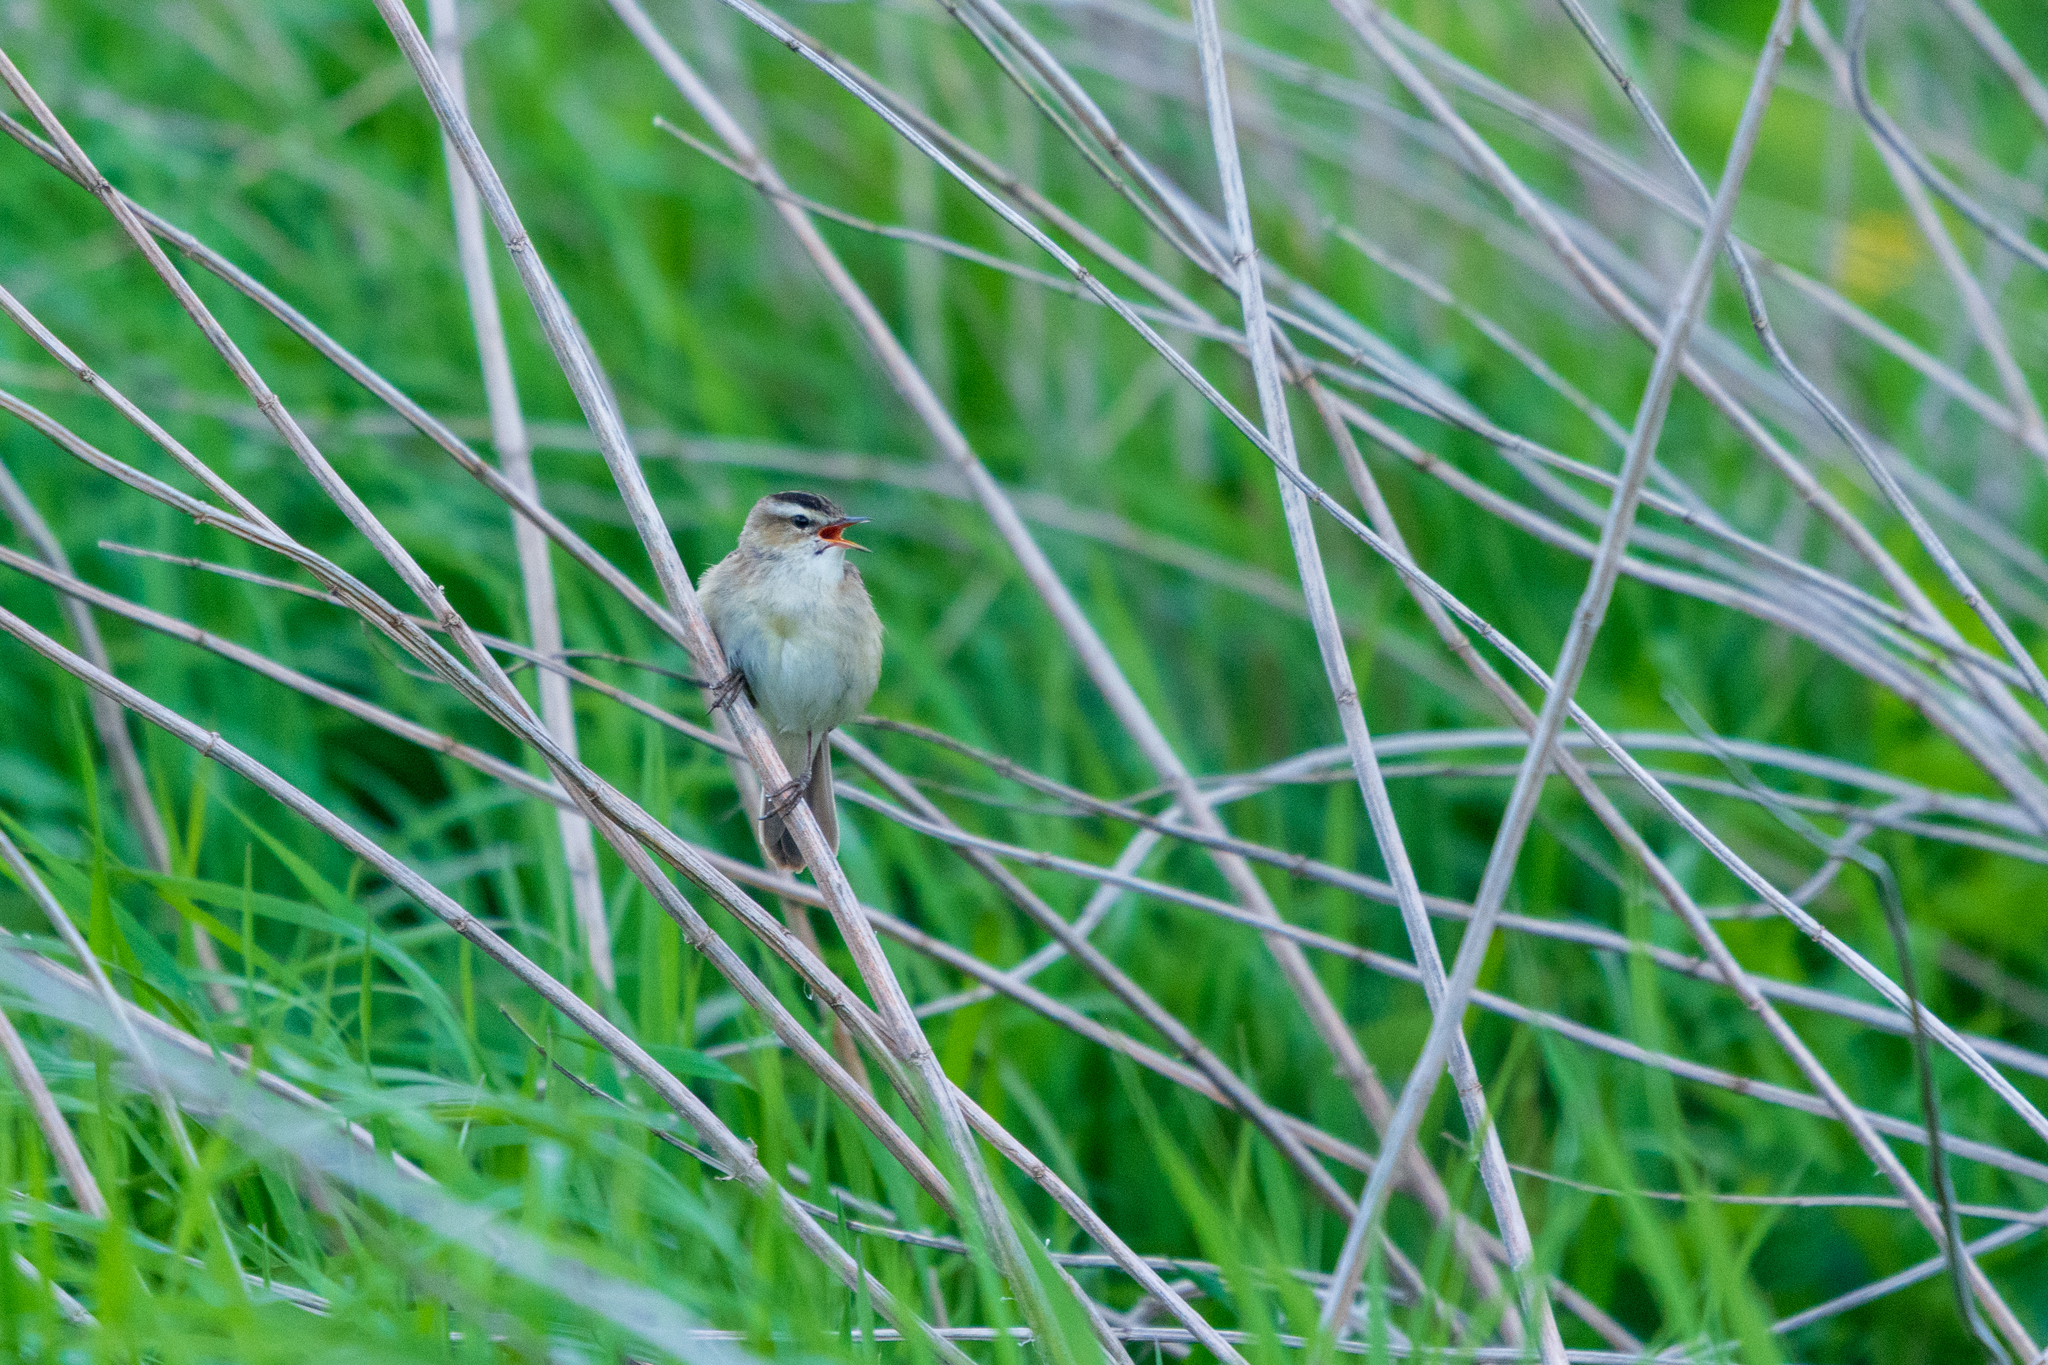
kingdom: Animalia
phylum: Chordata
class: Aves
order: Passeriformes
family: Acrocephalidae
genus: Acrocephalus
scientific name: Acrocephalus schoenobaenus
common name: Sedge warbler
